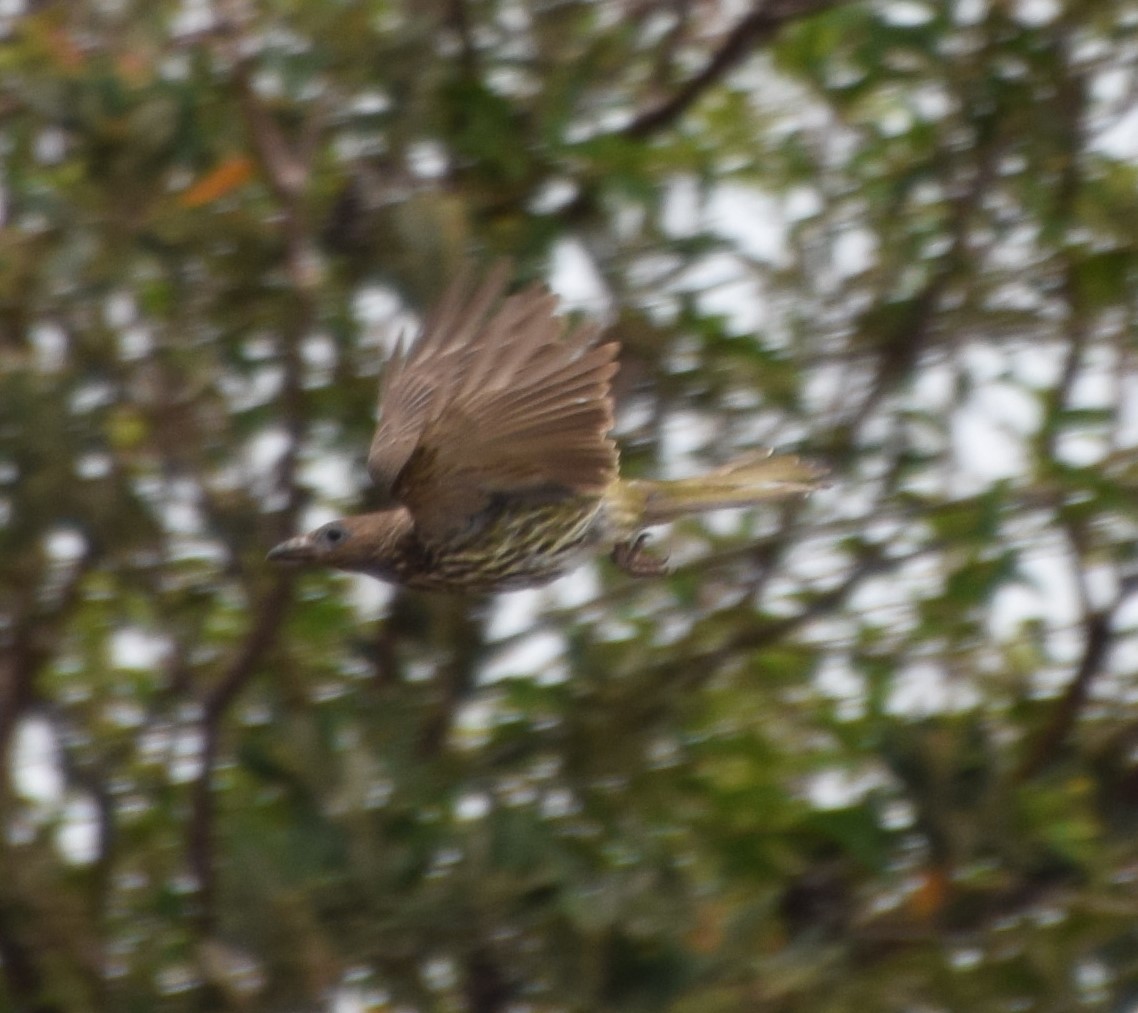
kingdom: Animalia
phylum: Chordata
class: Aves
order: Passeriformes
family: Oriolidae
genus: Sphecotheres
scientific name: Sphecotheres vieilloti
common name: Australasian figbird
